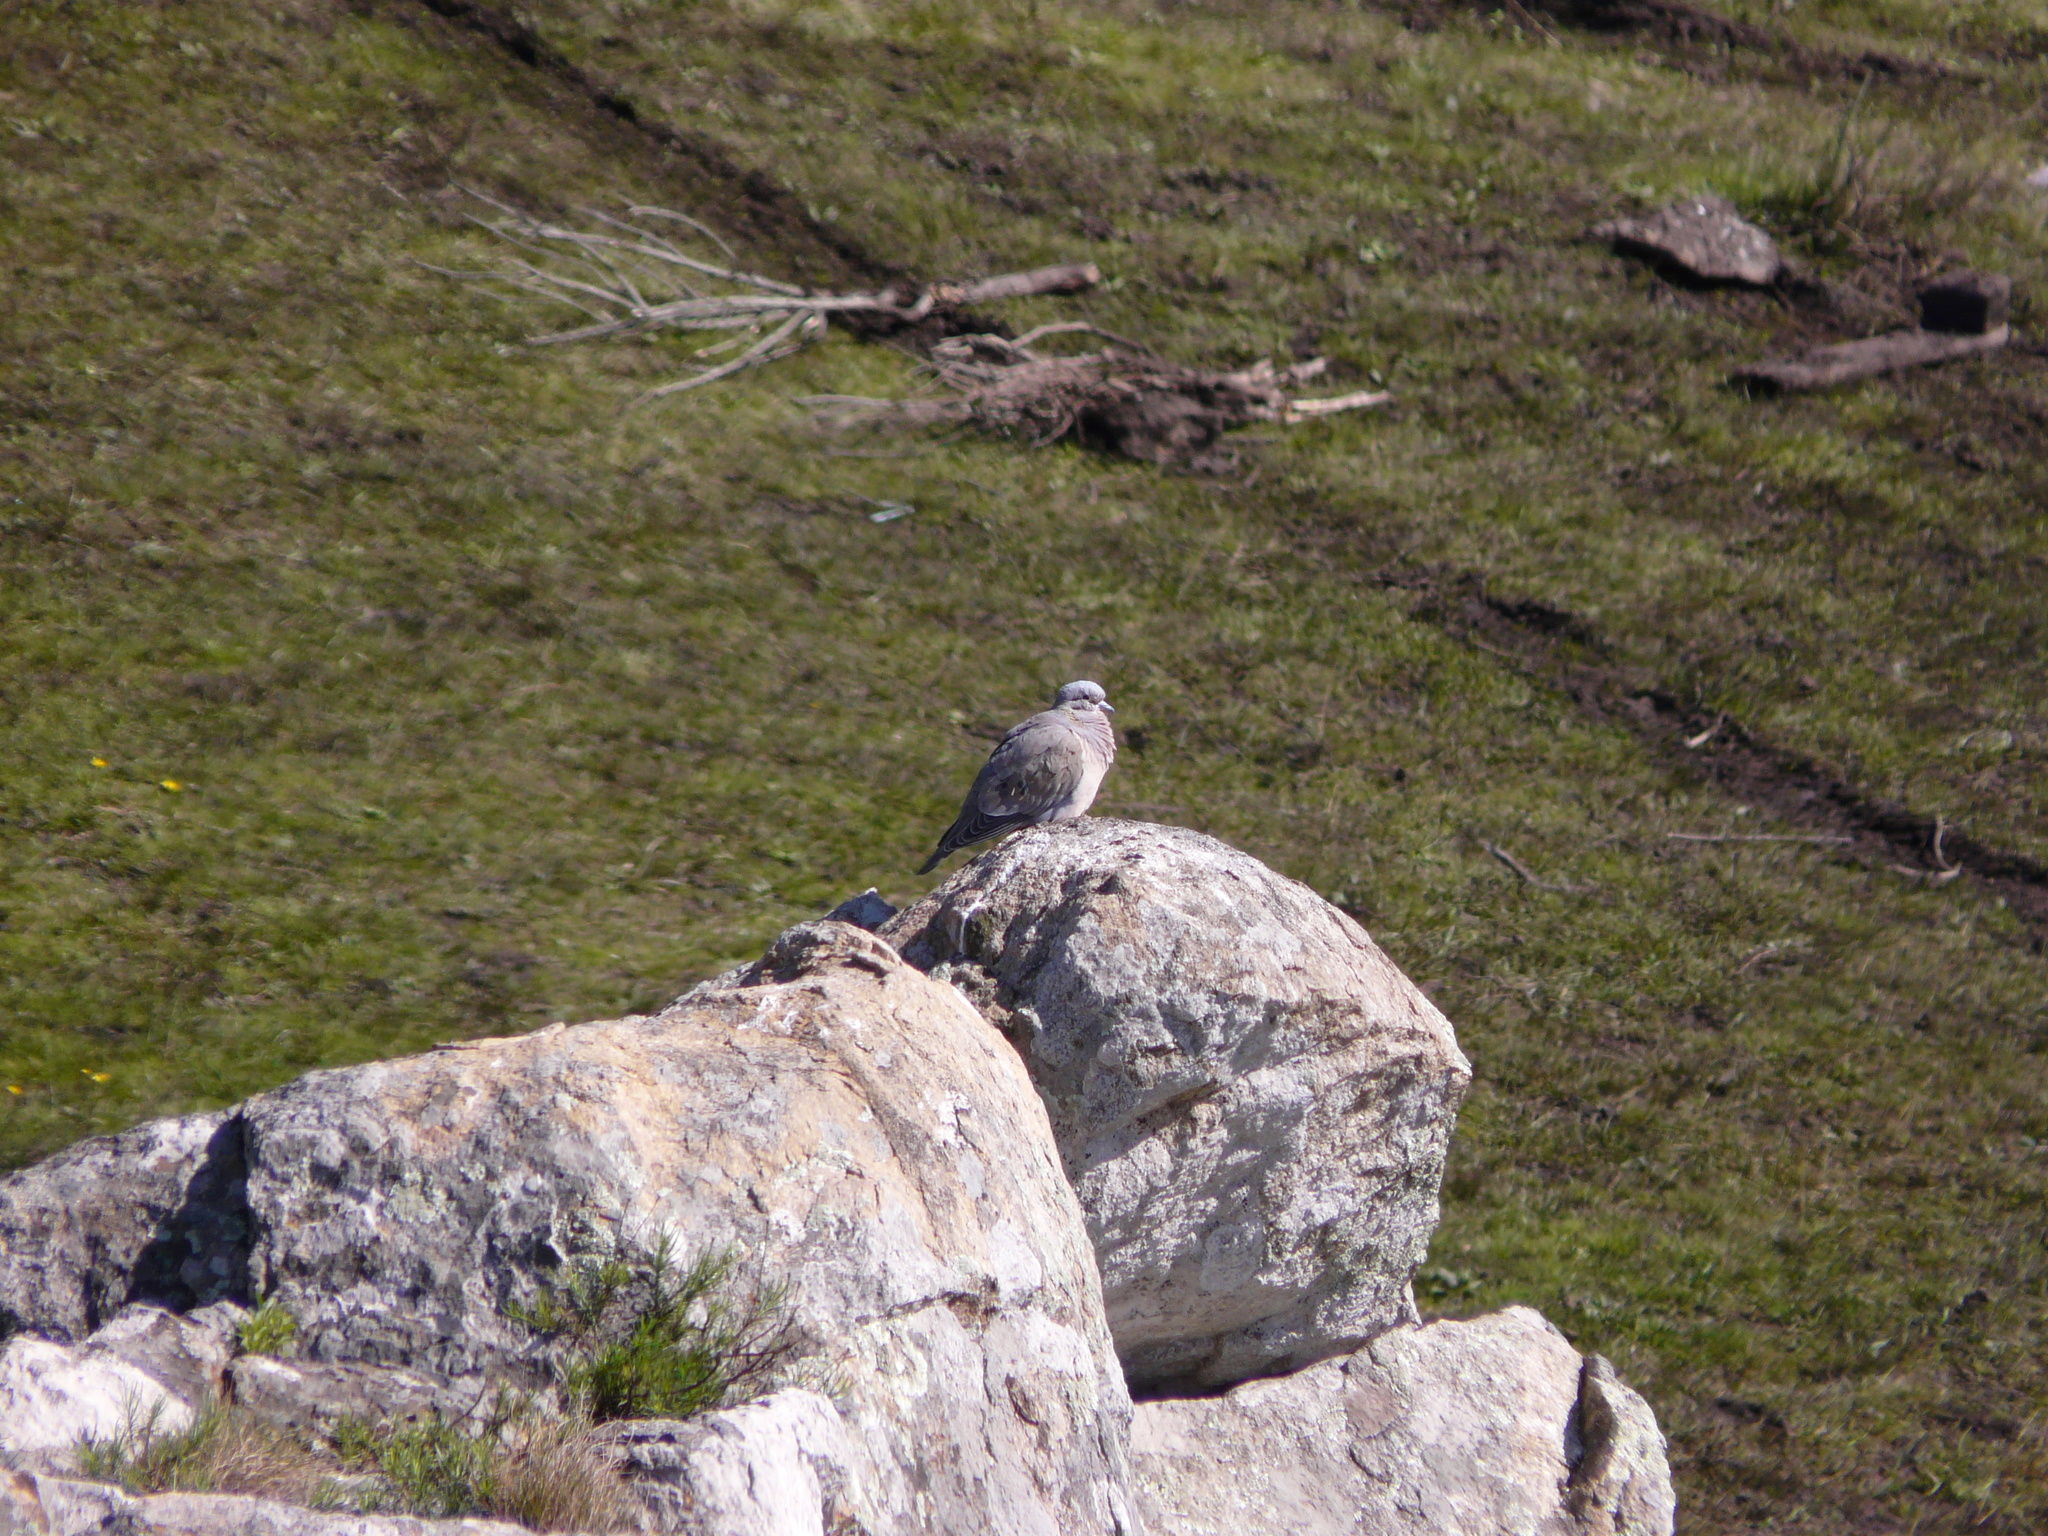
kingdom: Animalia
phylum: Chordata
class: Aves
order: Columbiformes
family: Columbidae
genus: Columbina
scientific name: Columbina picui
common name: Picui ground dove
